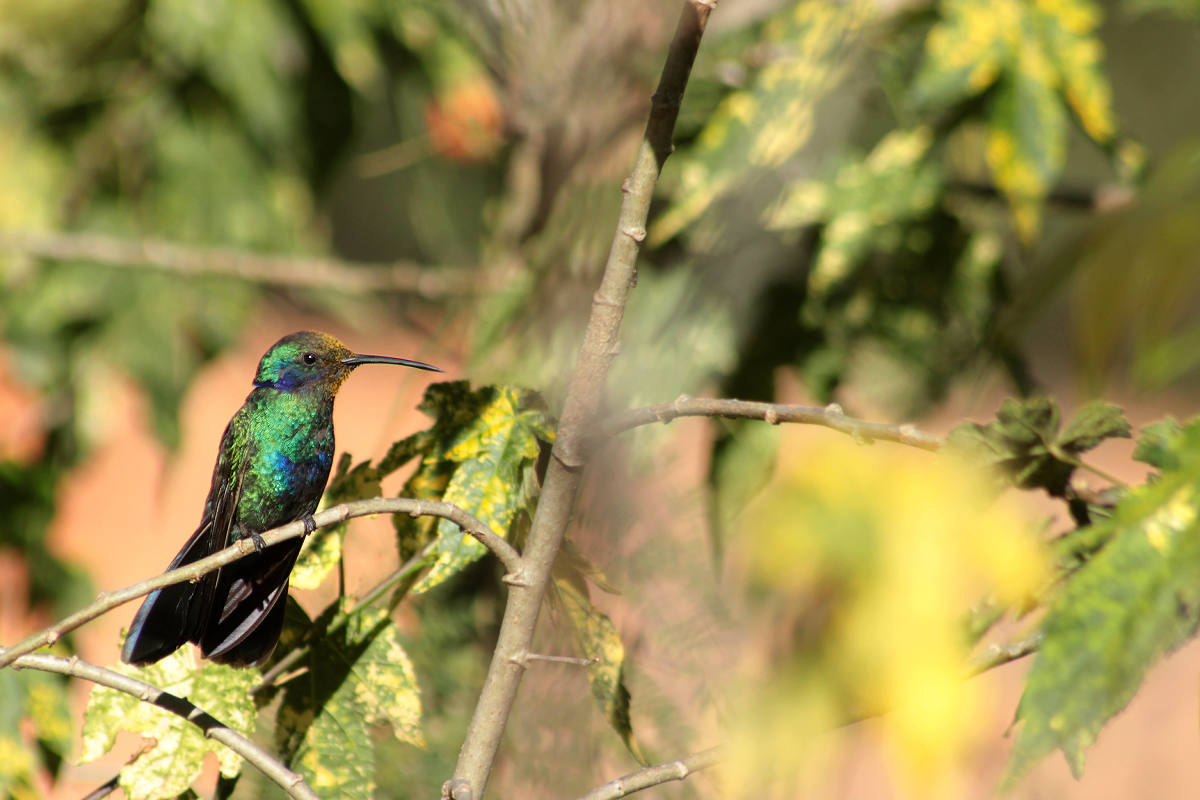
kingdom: Animalia
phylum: Chordata
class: Aves
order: Apodiformes
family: Trochilidae
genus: Colibri
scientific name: Colibri coruscans
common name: Sparkling violetear
